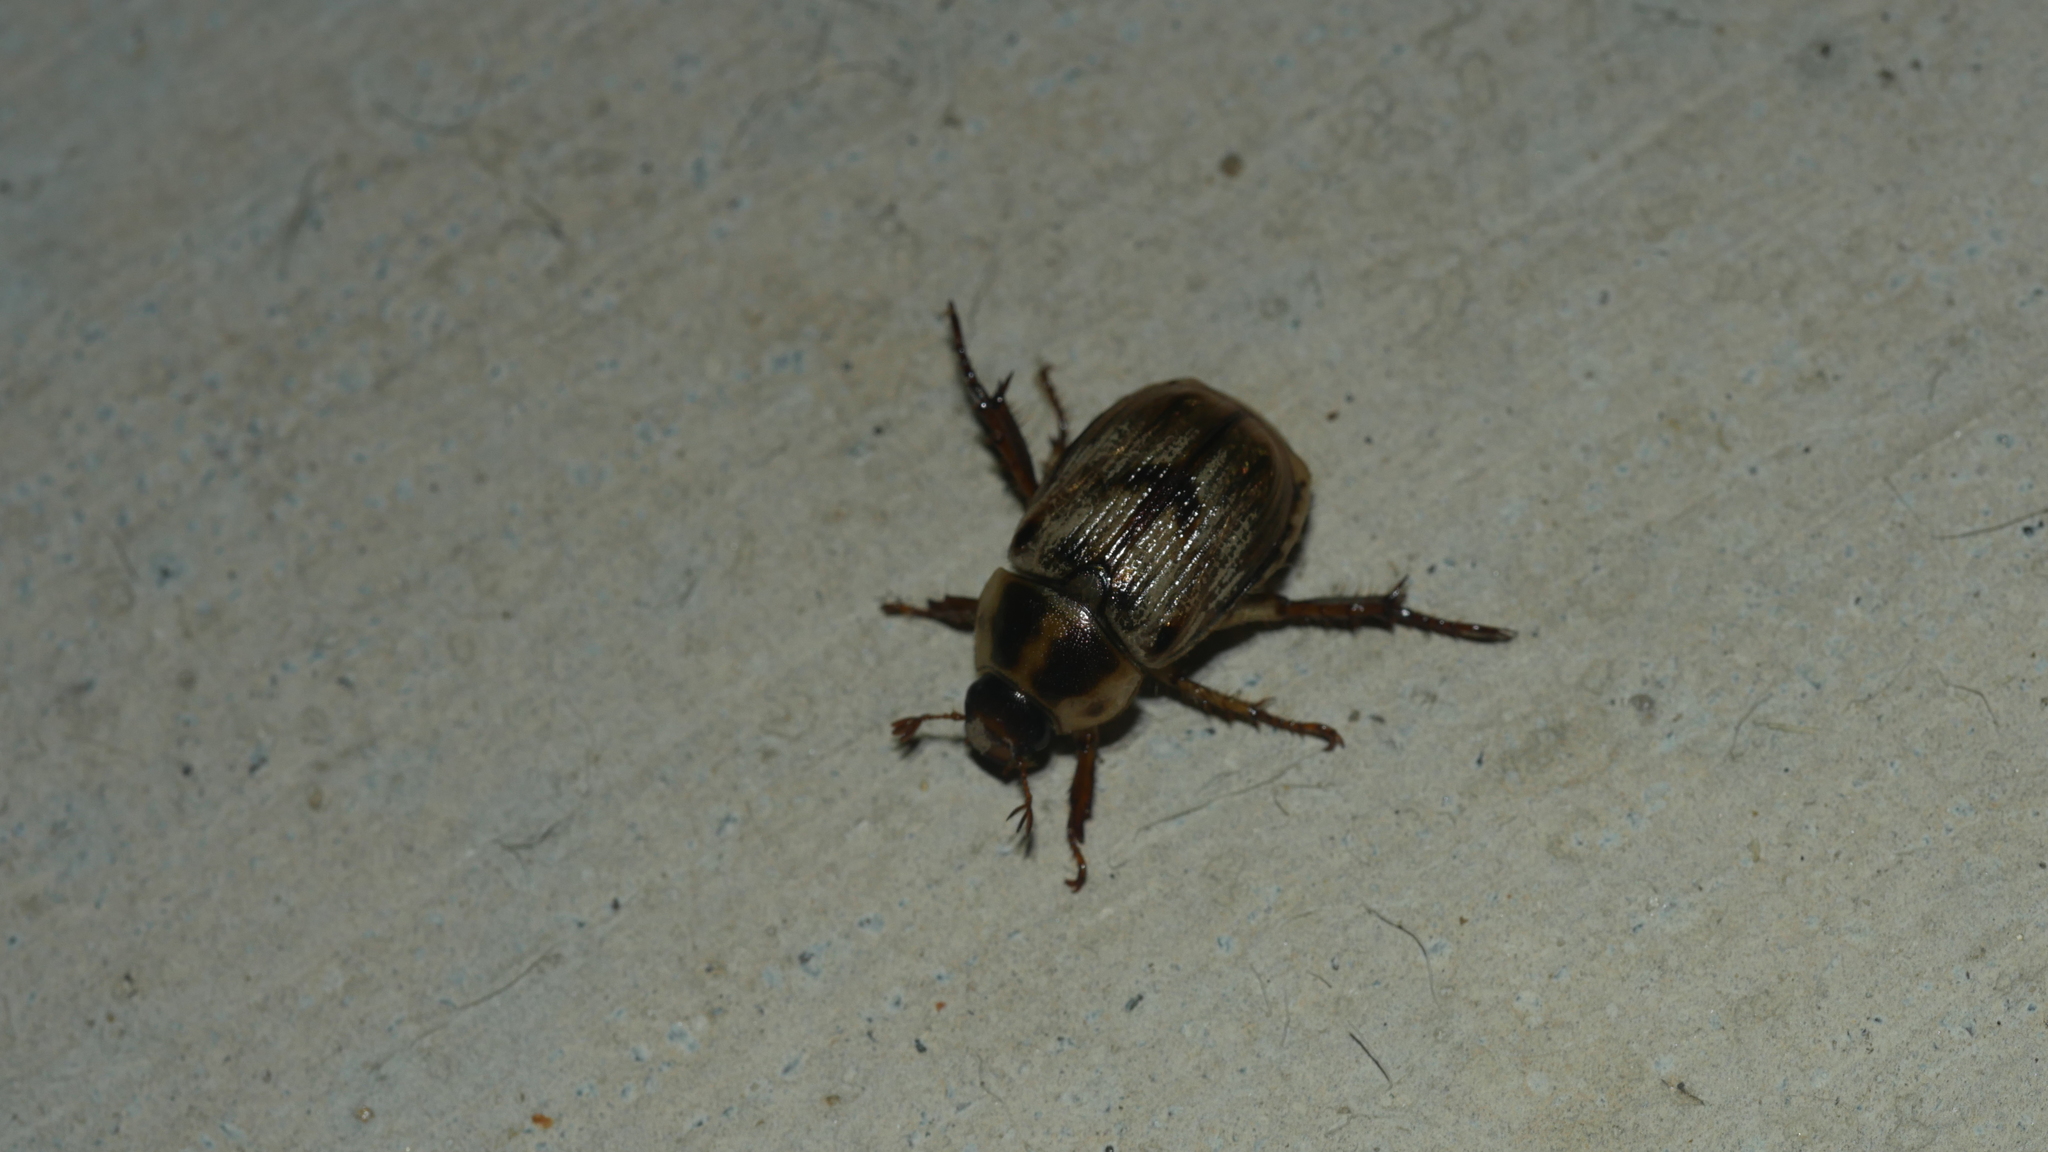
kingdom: Animalia
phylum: Arthropoda
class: Insecta
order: Coleoptera
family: Scarabaeidae
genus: Exomala
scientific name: Exomala orientalis
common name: Oriental beetle
